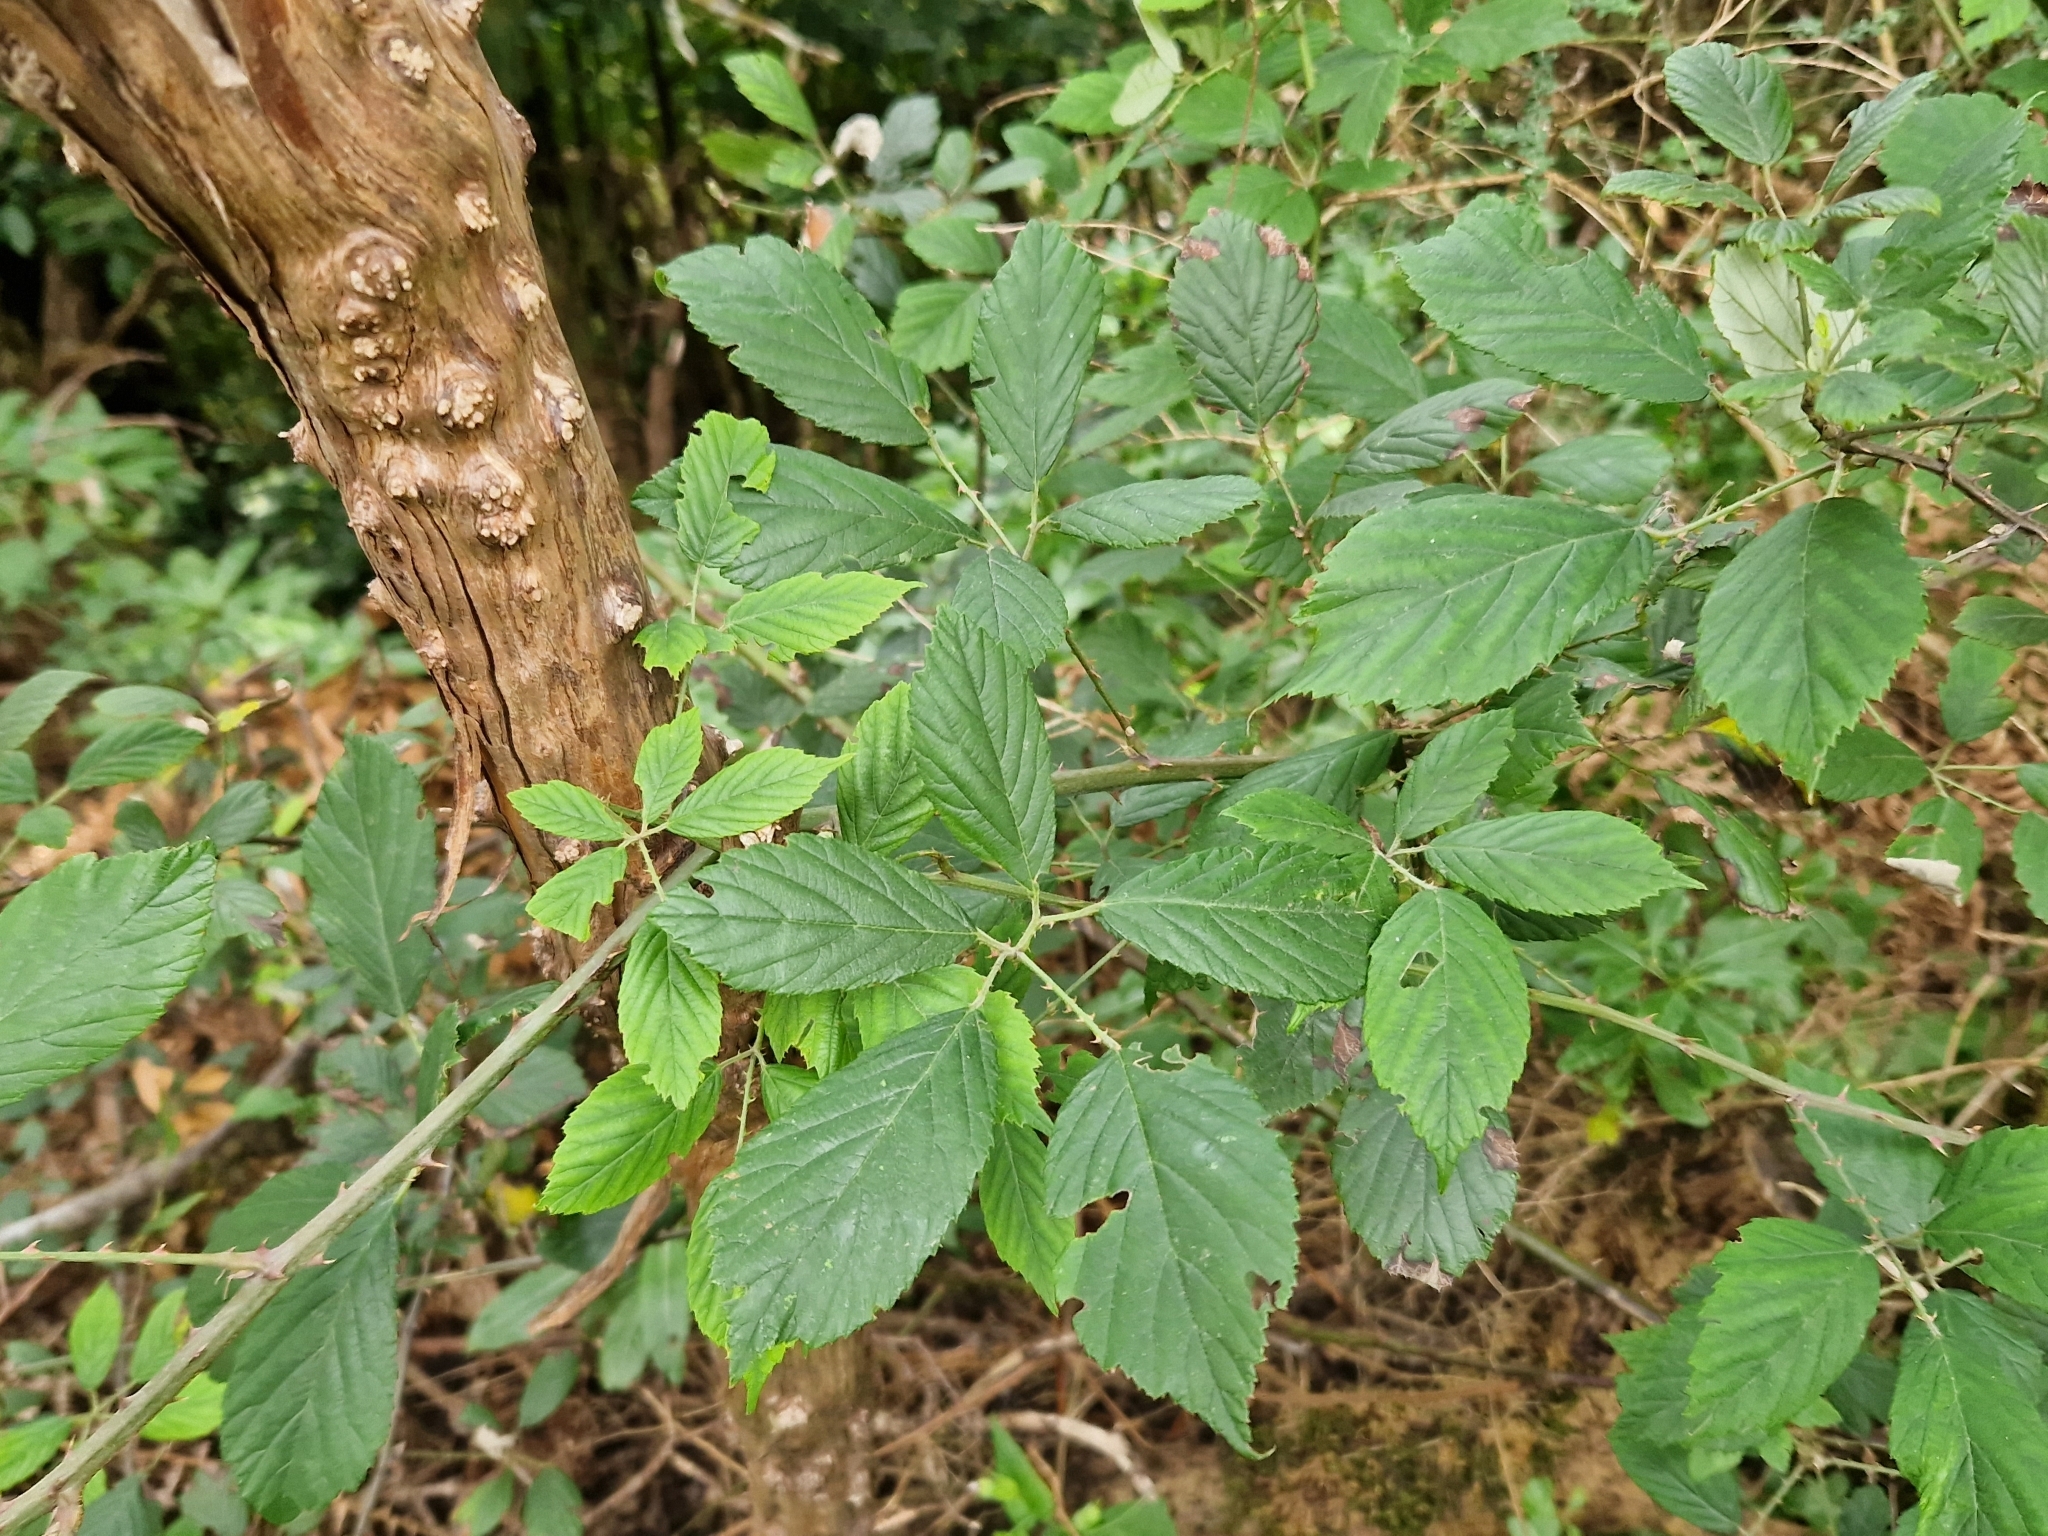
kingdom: Plantae
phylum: Tracheophyta
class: Magnoliopsida
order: Rosales
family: Rosaceae
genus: Rubus
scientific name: Rubus ulmifolius
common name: Elmleaf blackberry
